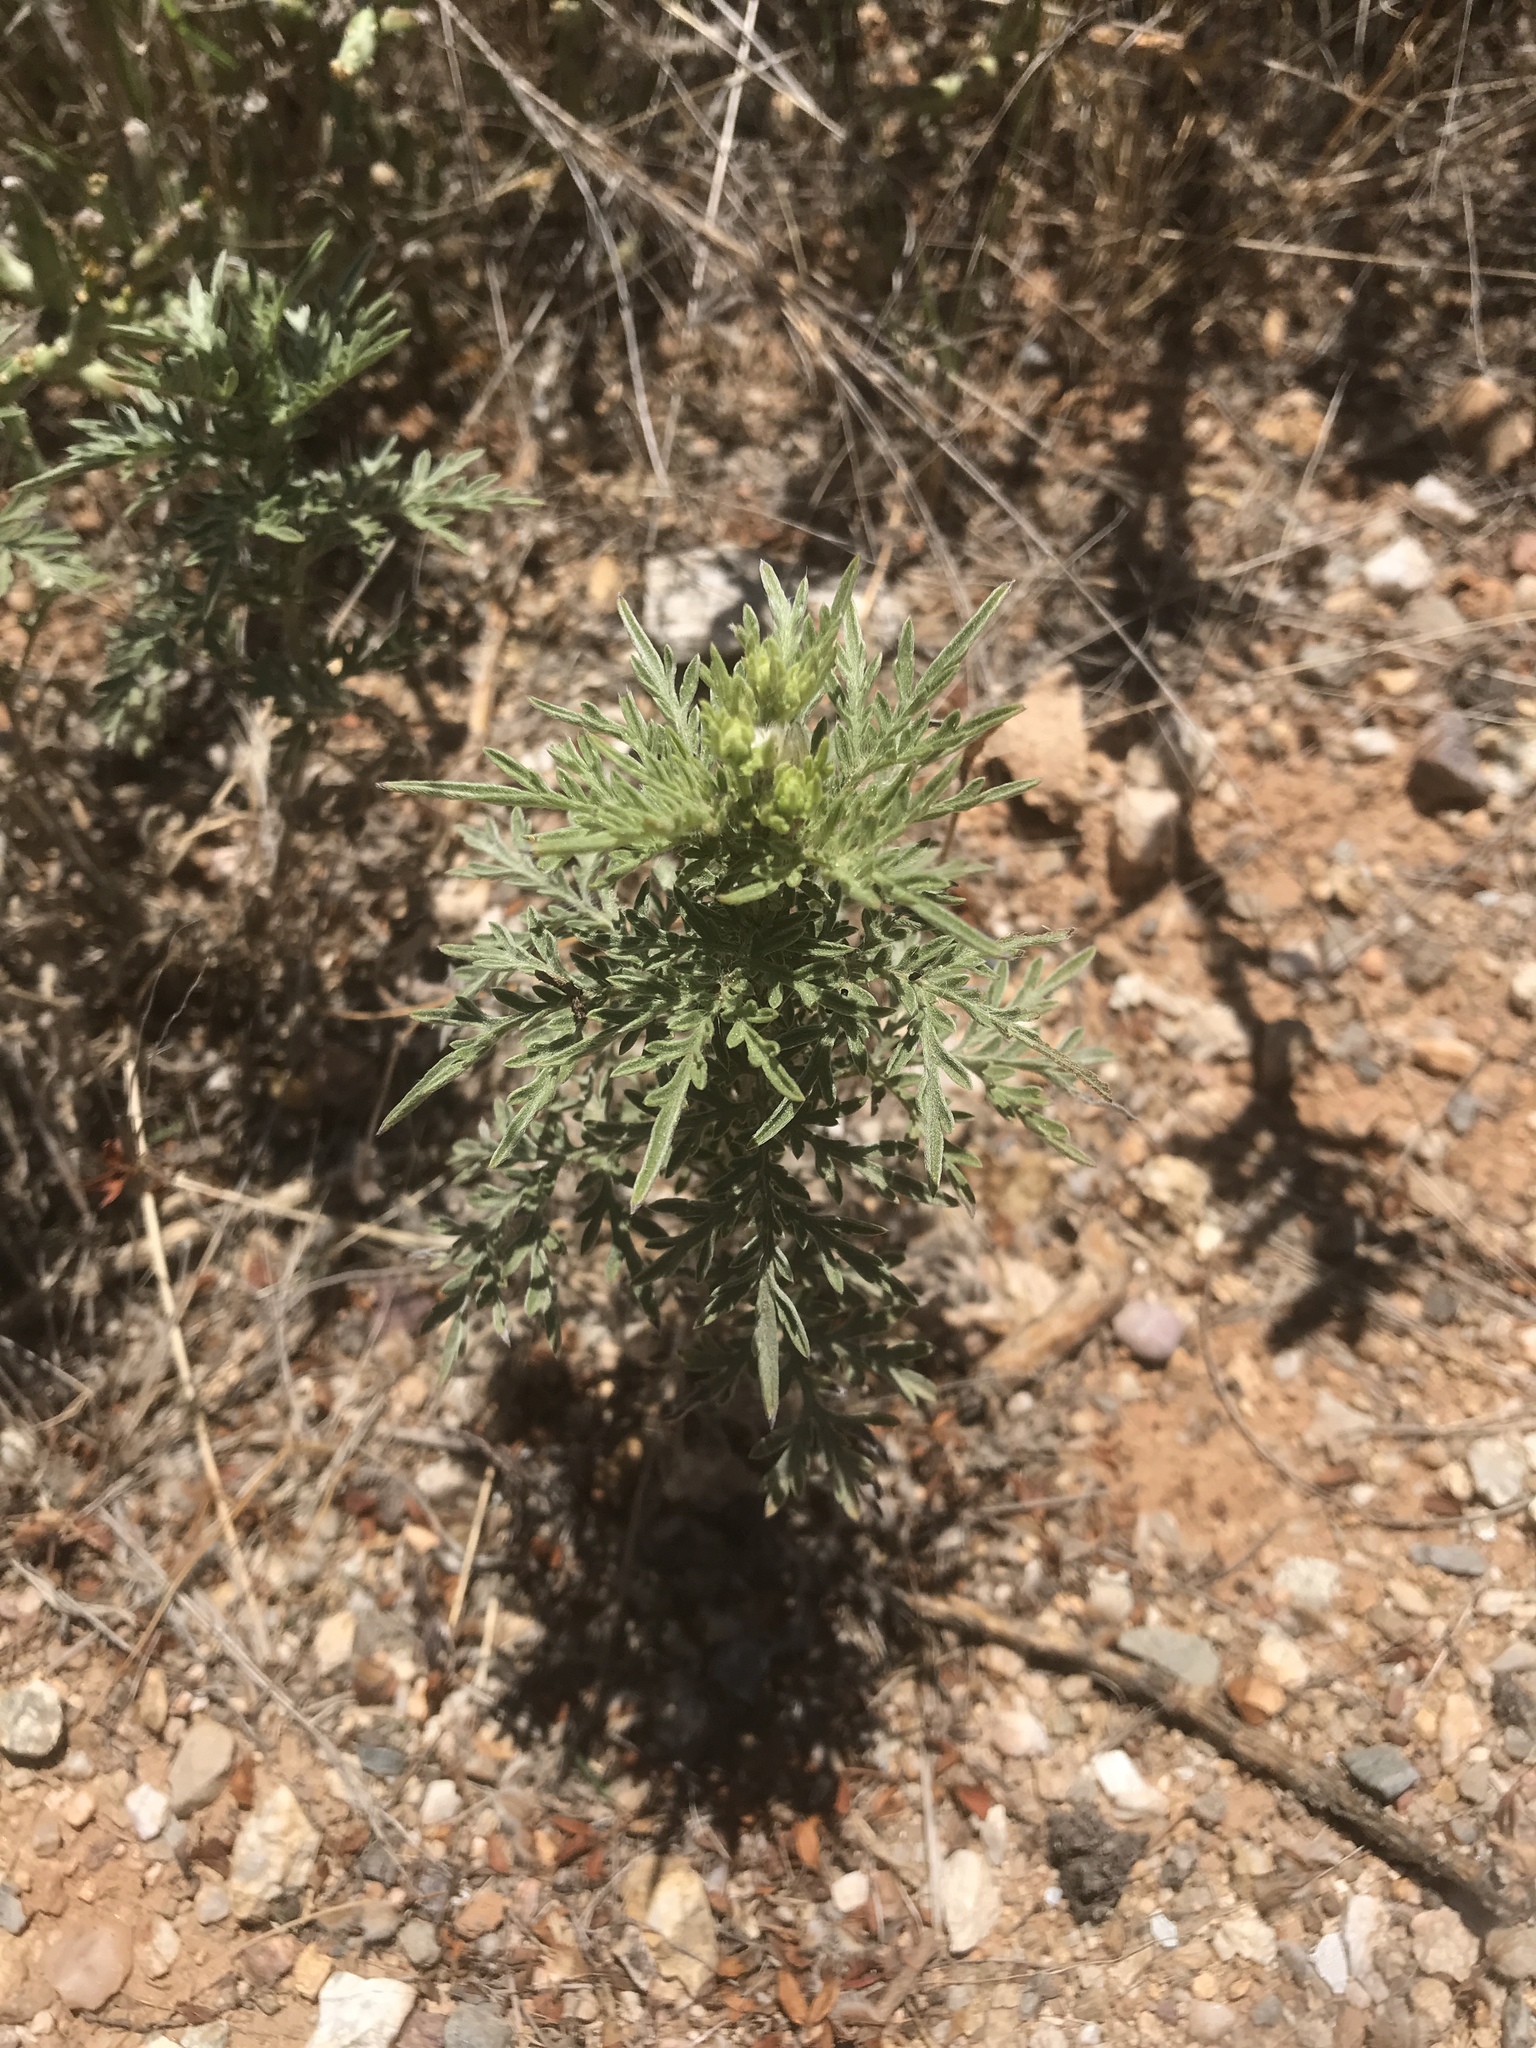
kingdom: Plantae
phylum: Tracheophyta
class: Magnoliopsida
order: Asterales
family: Asteraceae
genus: Ambrosia
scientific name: Ambrosia confertiflora
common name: Bur ragweed
